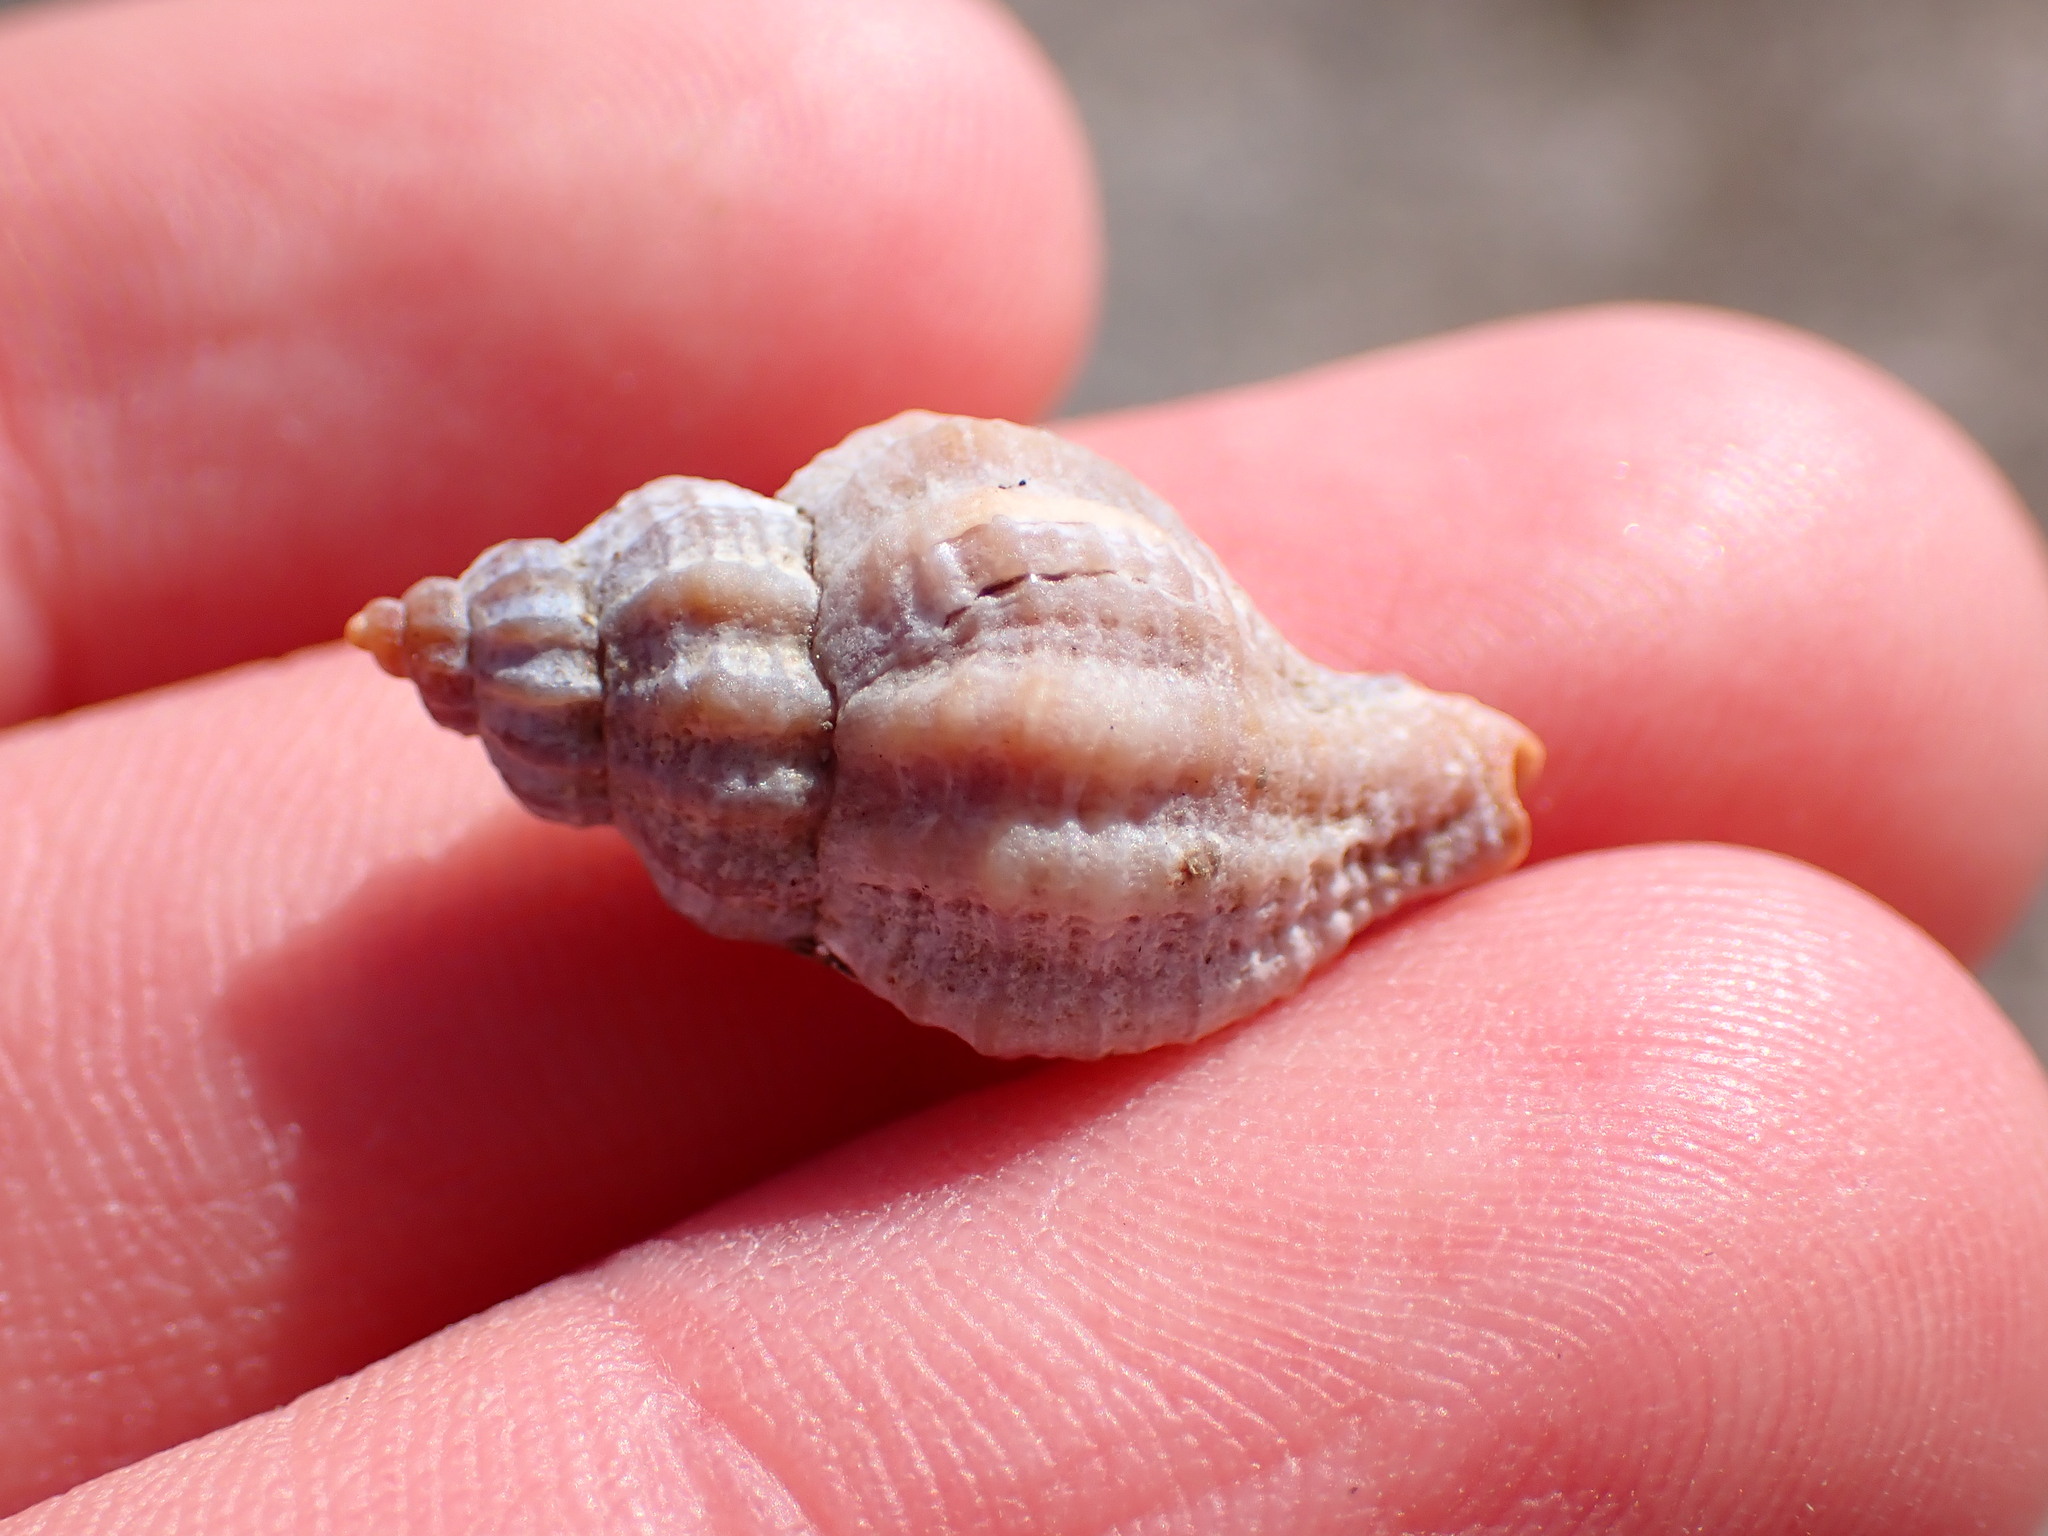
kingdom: Animalia
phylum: Mollusca
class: Gastropoda
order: Neogastropoda
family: Muricidae
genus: Urosalpinx
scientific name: Urosalpinx cinerea
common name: American sting winkle
